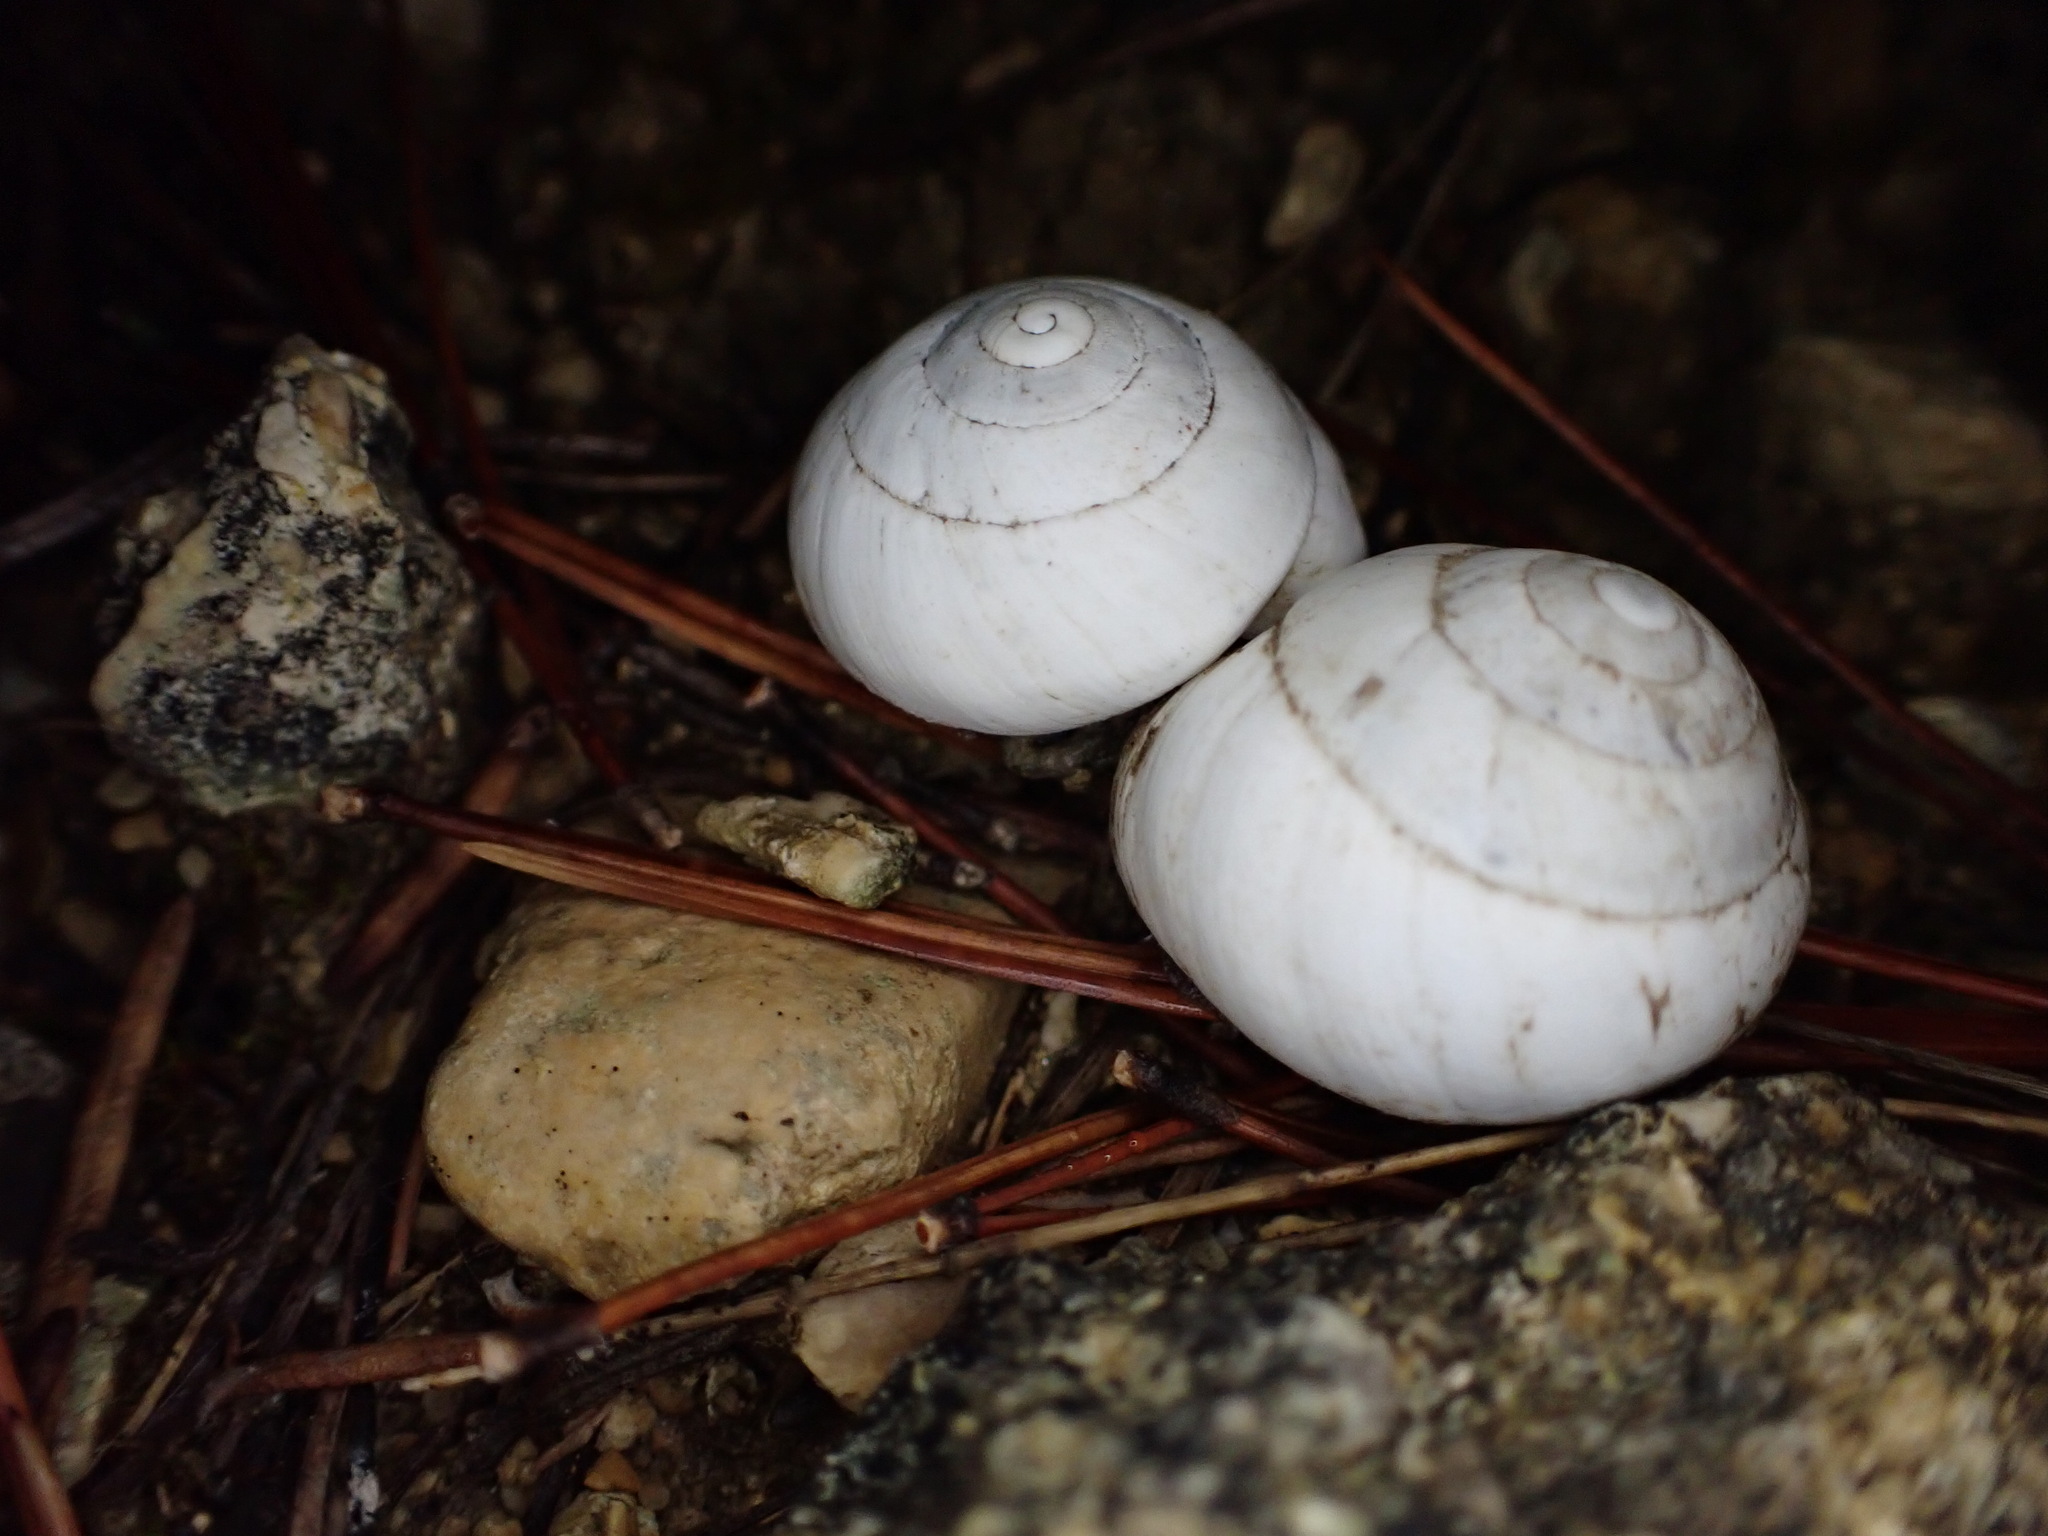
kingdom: Animalia
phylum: Mollusca
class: Gastropoda
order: Stylommatophora
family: Sphincterochilidae
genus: Sphincterochila
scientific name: Sphincterochila candidissima
